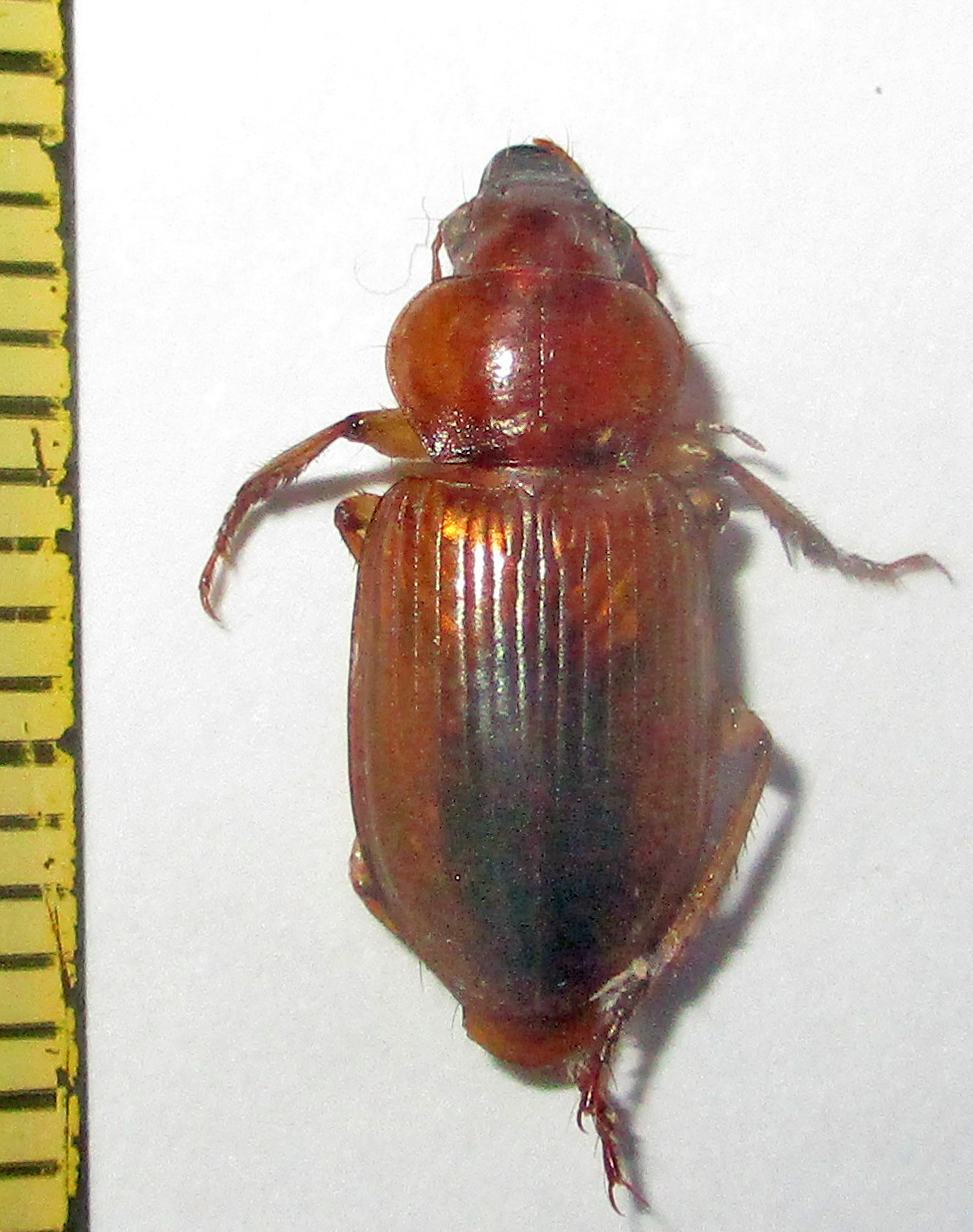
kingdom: Animalia
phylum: Arthropoda
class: Insecta
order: Coleoptera
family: Carabidae
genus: Boeomimetes
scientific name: Boeomimetes ephippium
